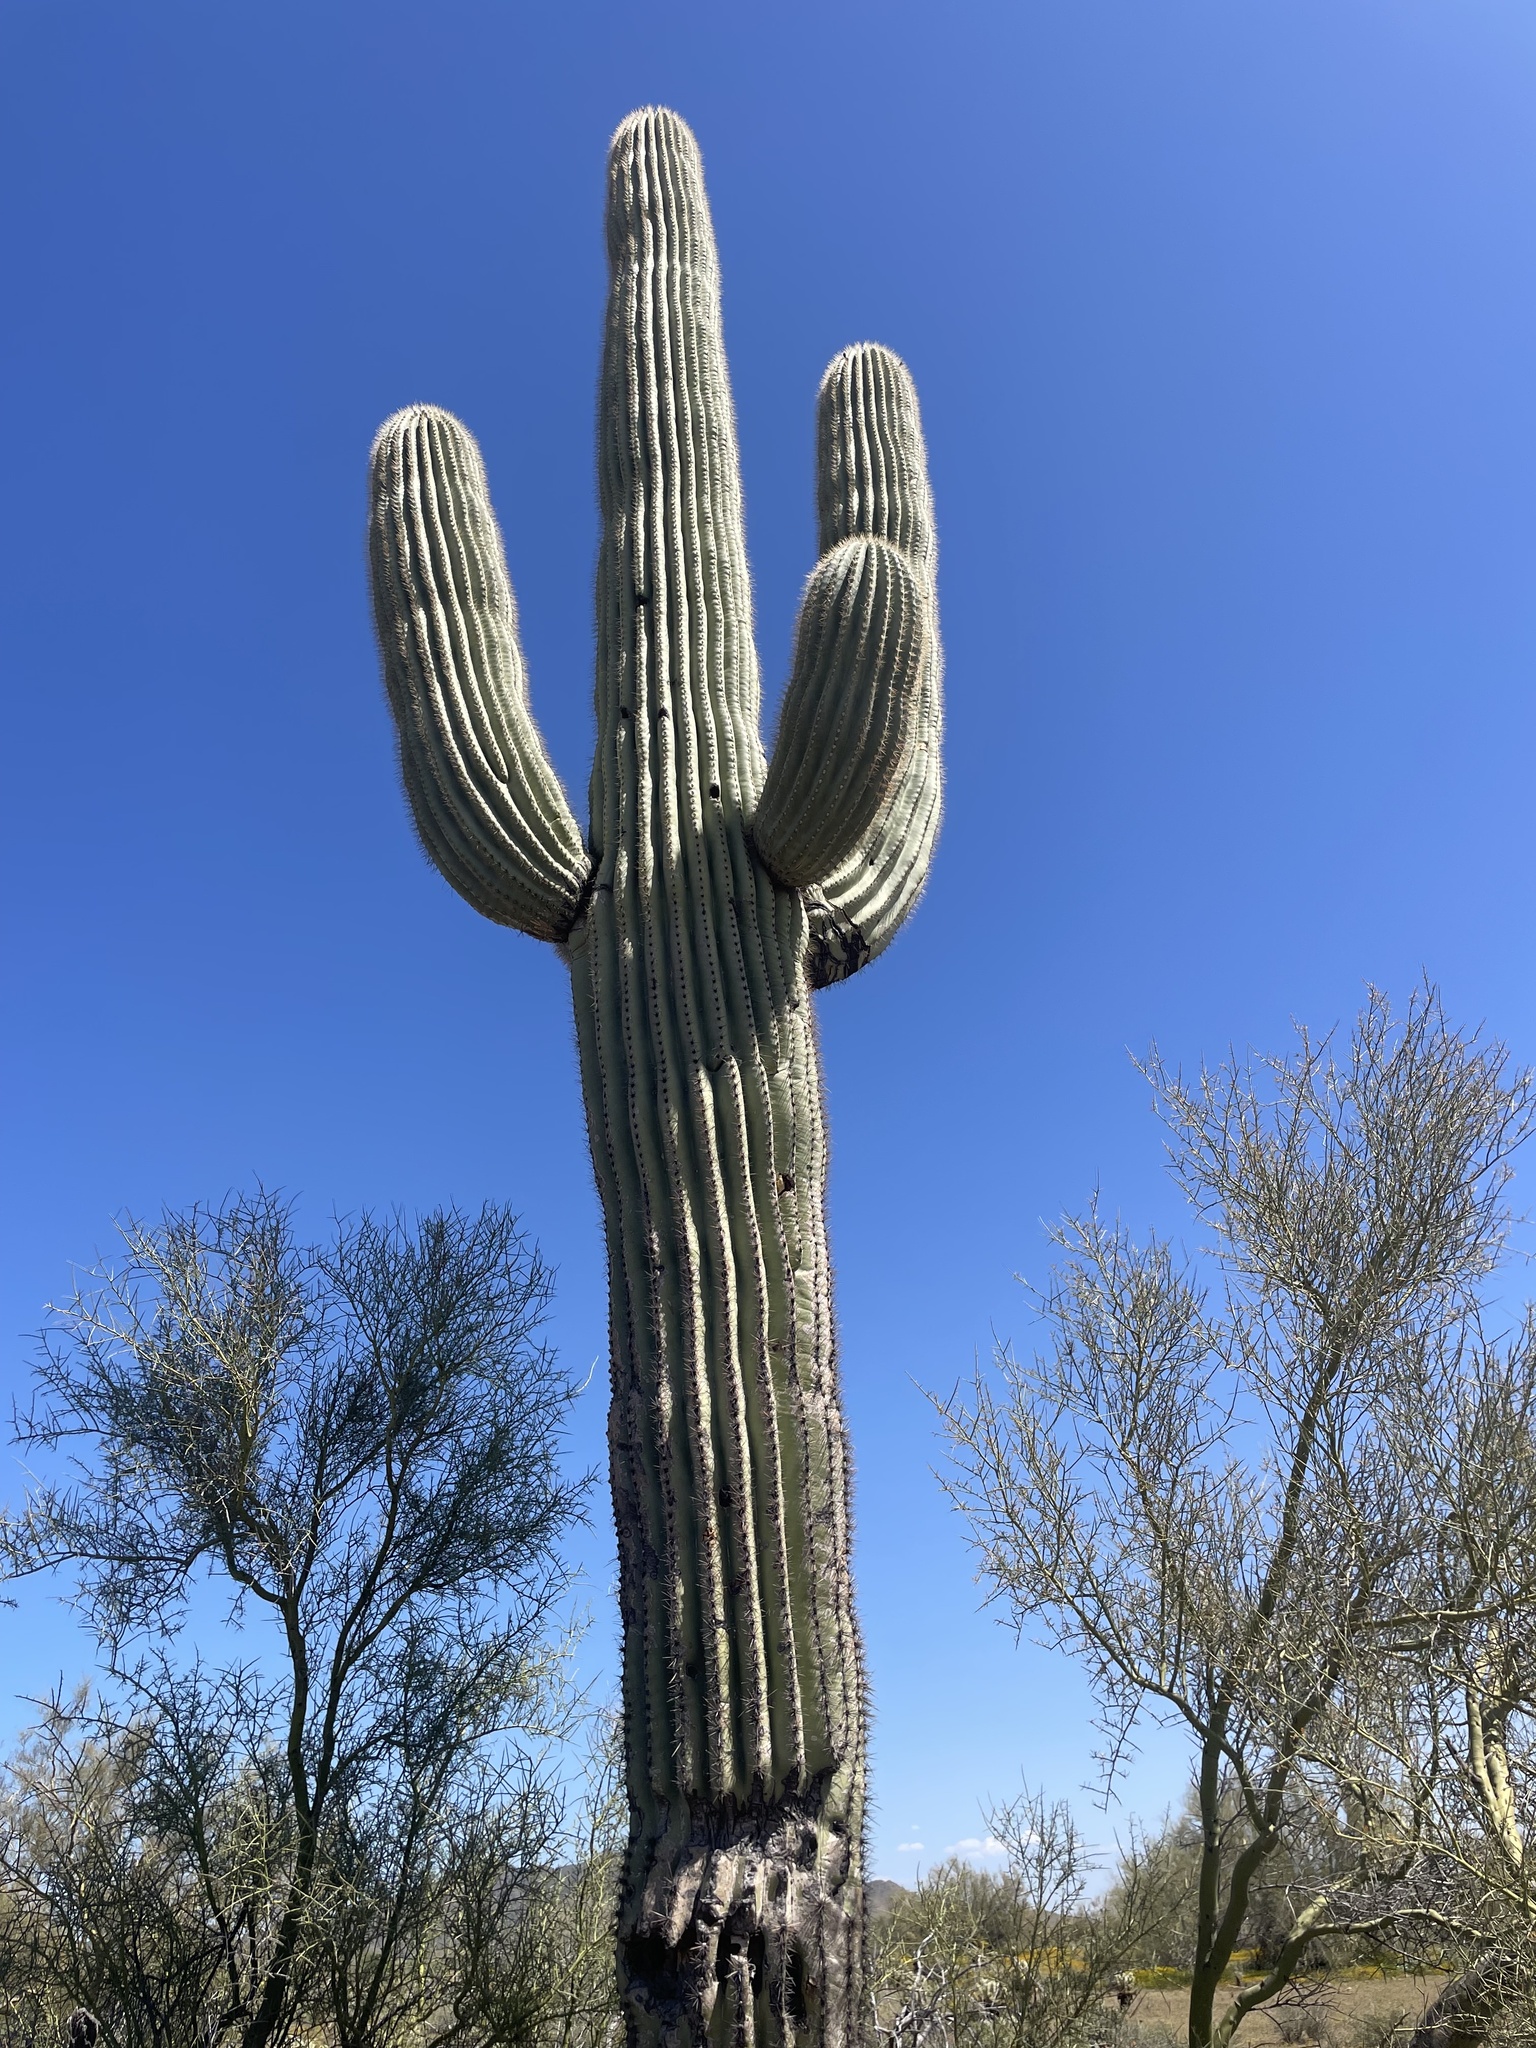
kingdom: Plantae
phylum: Tracheophyta
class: Magnoliopsida
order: Caryophyllales
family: Cactaceae
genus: Carnegiea
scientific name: Carnegiea gigantea
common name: Saguaro
